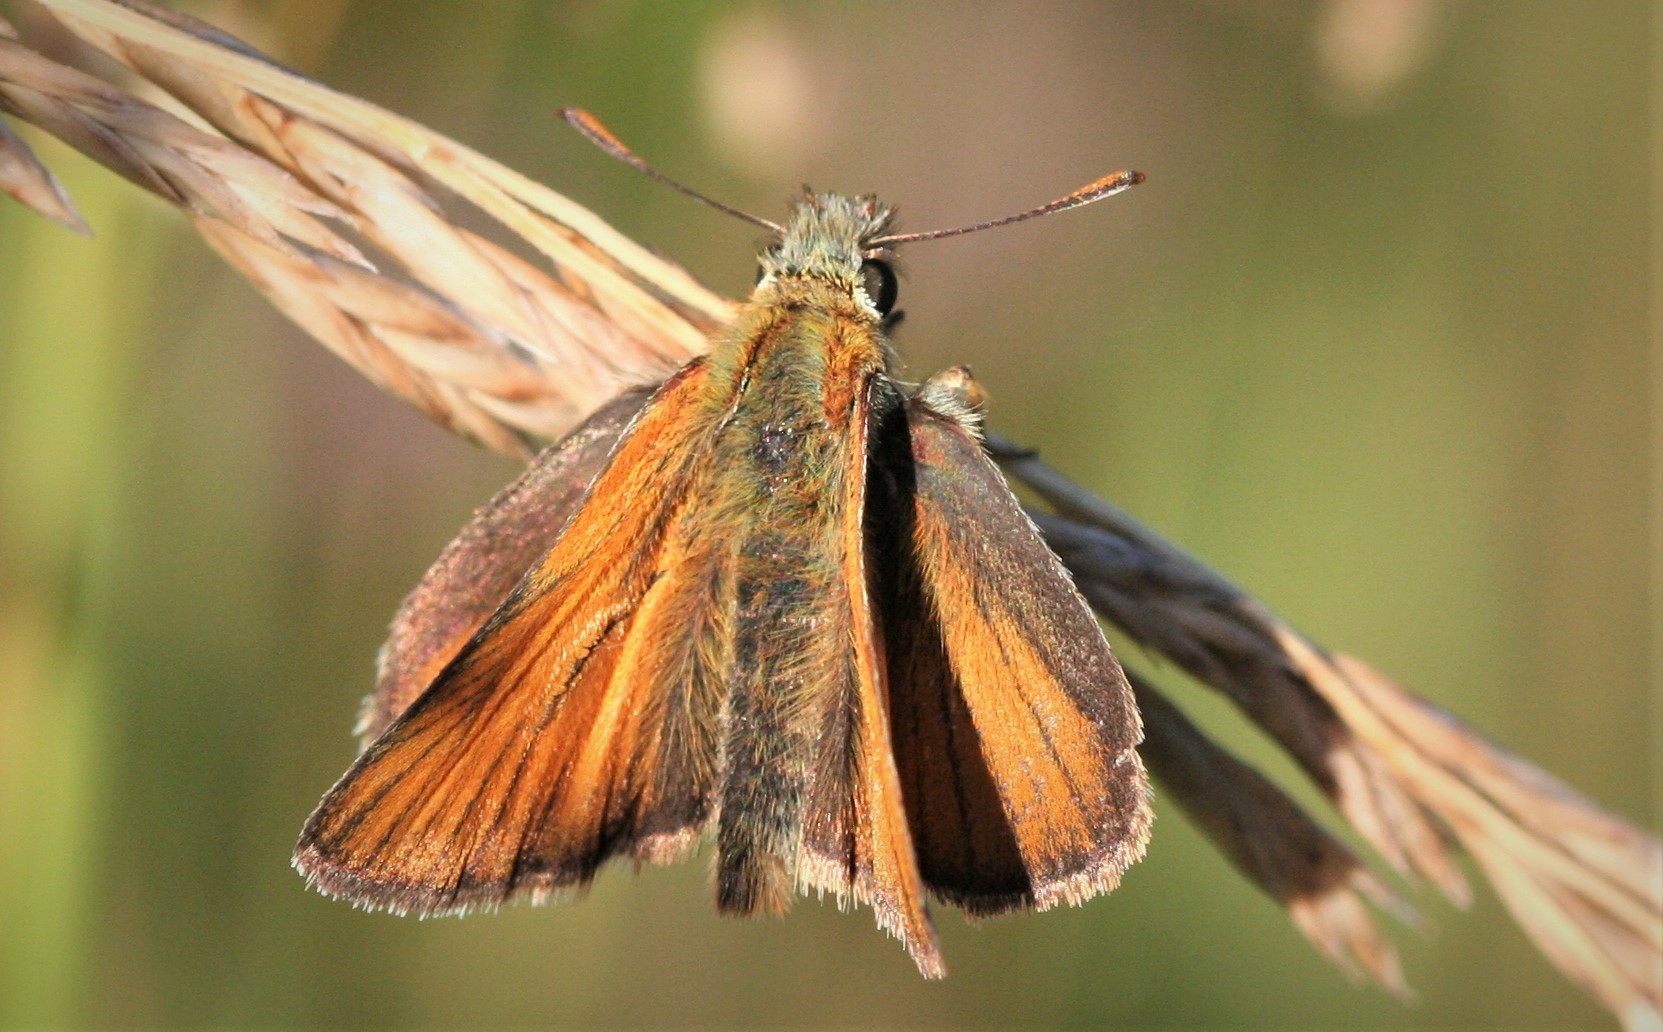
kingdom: Animalia
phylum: Arthropoda
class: Insecta
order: Lepidoptera
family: Hesperiidae
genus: Thymelicus
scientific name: Thymelicus sylvestris
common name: Small skipper
